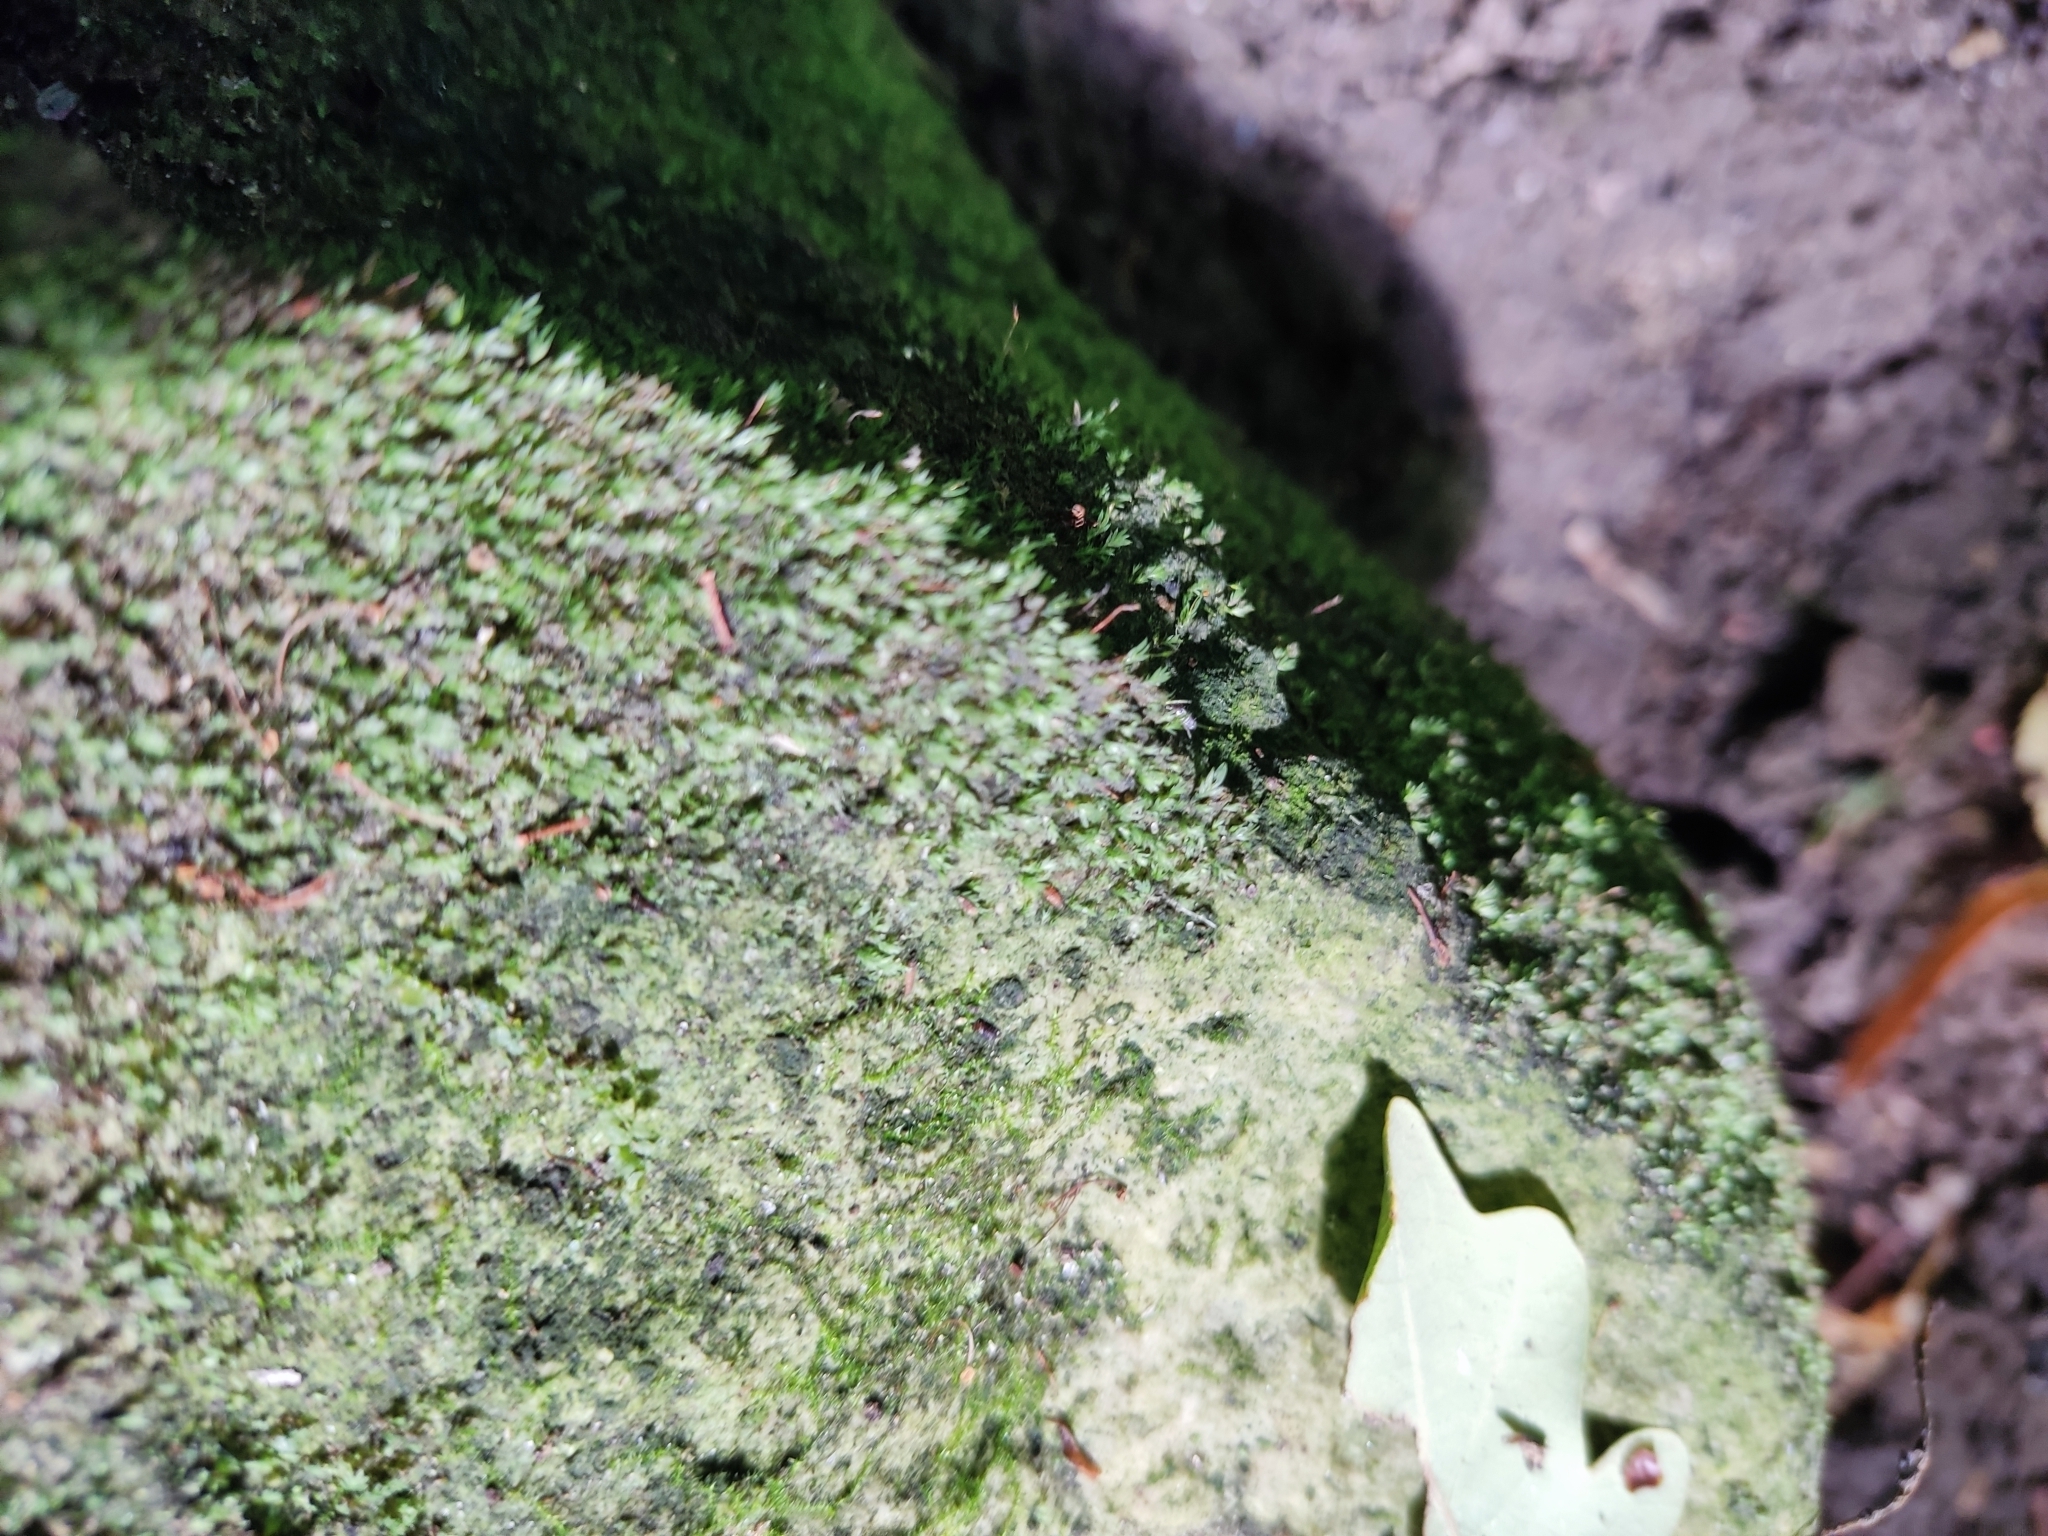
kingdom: Plantae
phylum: Bryophyta
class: Bryopsida
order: Dicranales
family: Fissidentaceae
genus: Fissidens
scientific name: Fissidens gracilifolius
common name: Narrow-leaved pocket-moss
